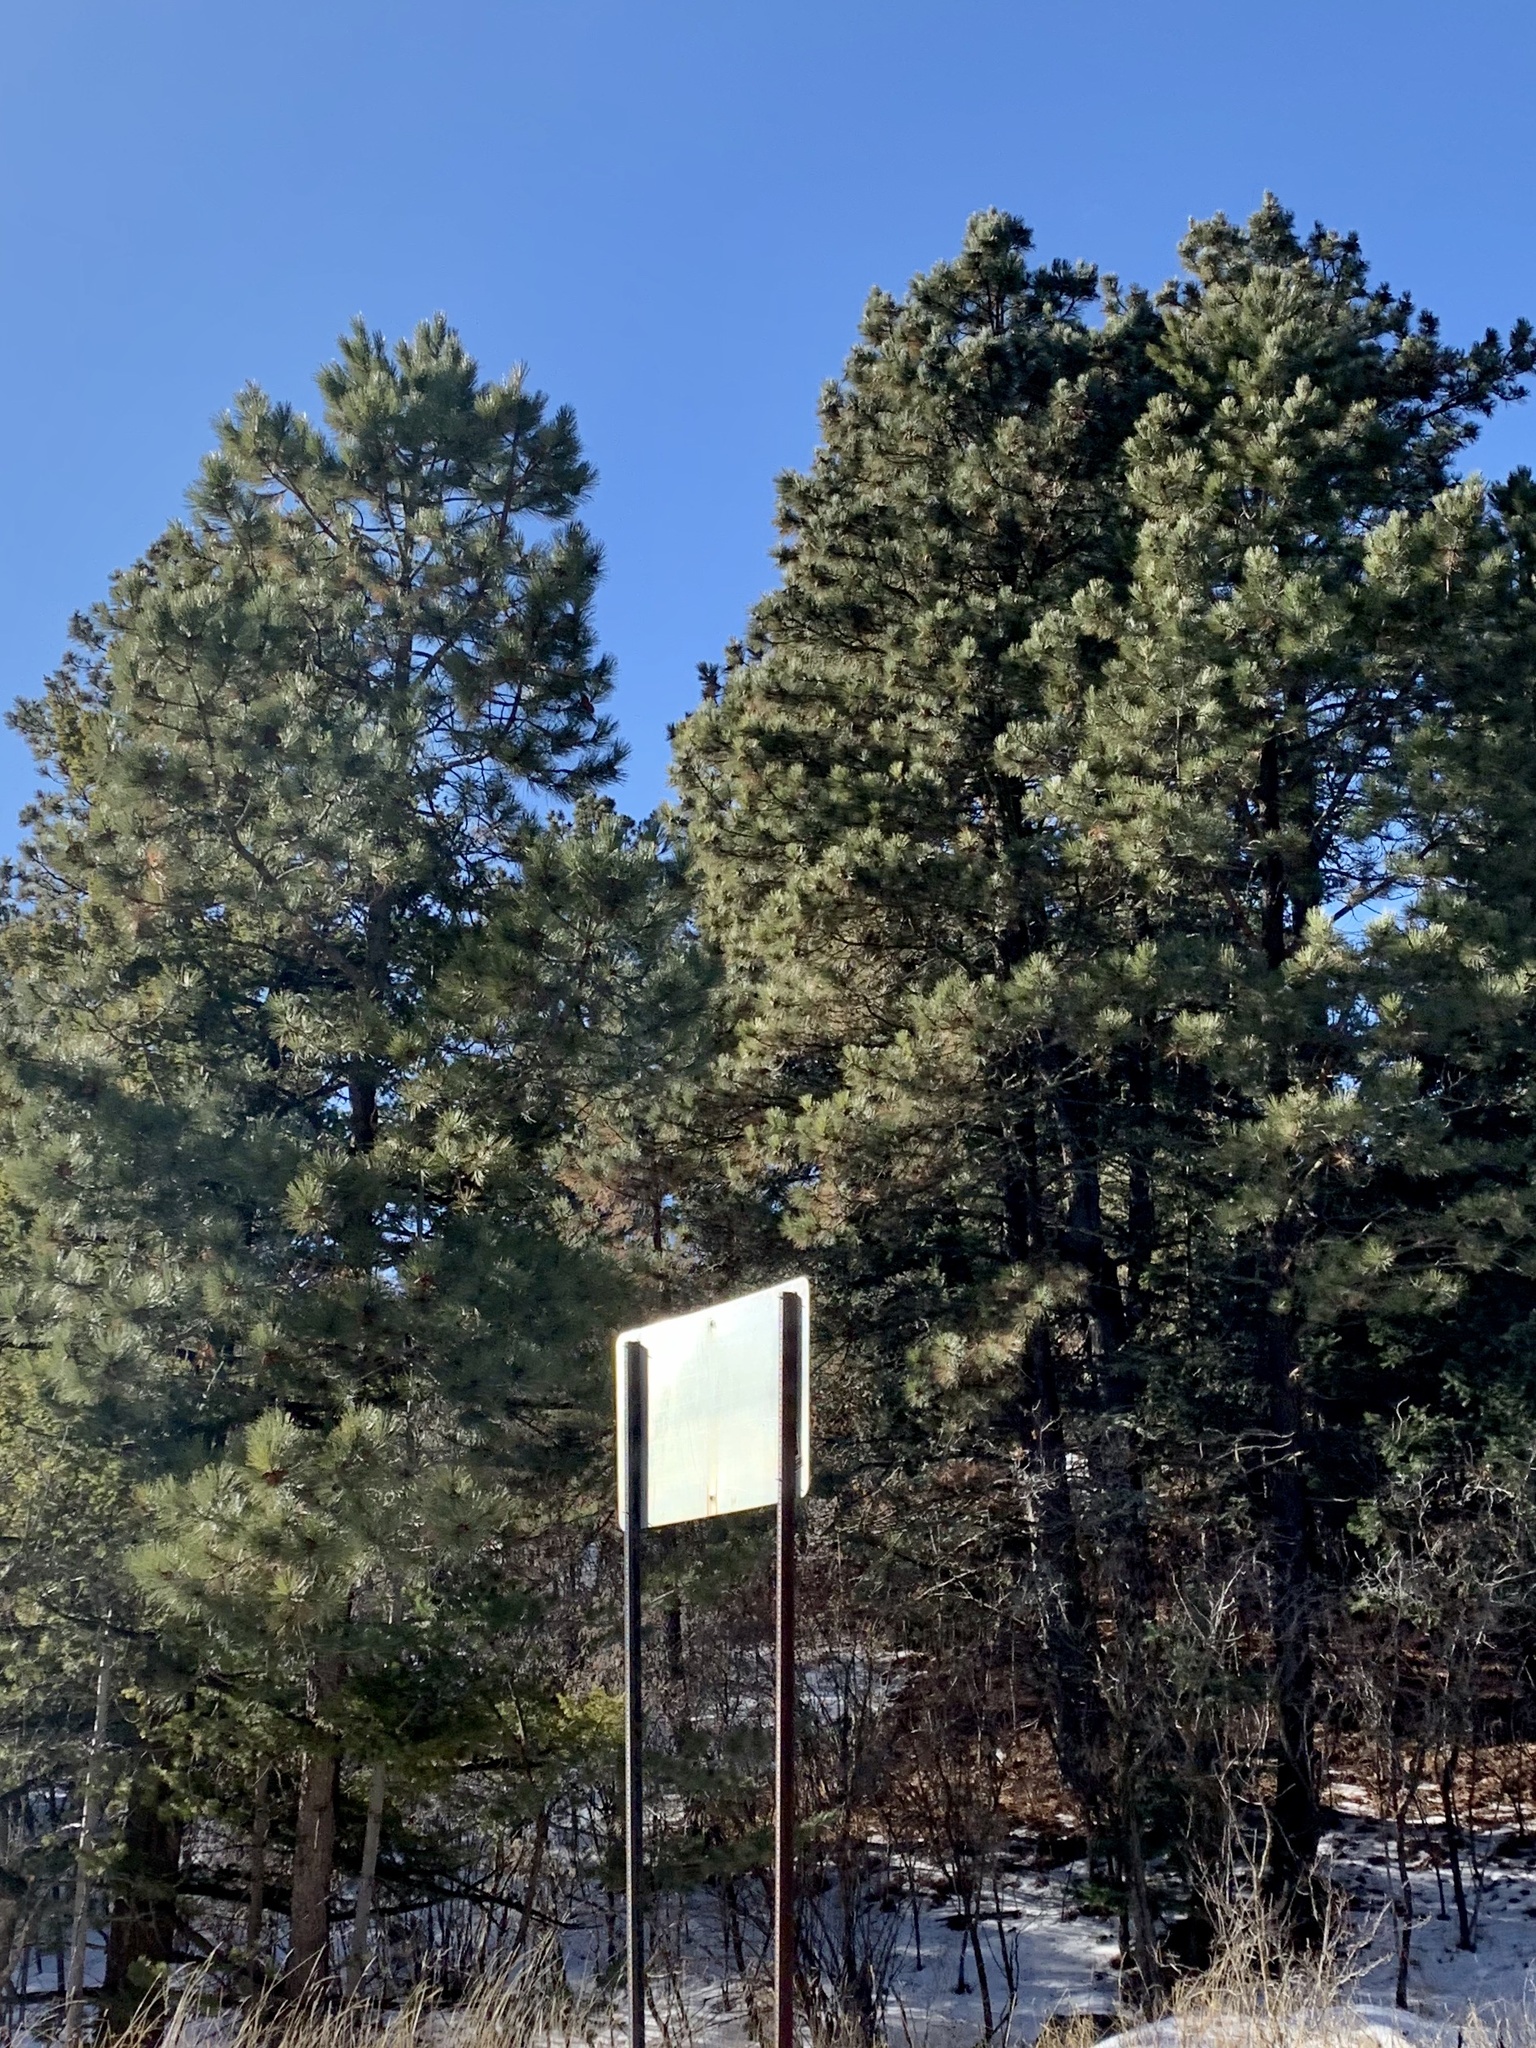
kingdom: Plantae
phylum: Tracheophyta
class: Pinopsida
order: Pinales
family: Pinaceae
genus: Pinus
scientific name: Pinus ponderosa
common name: Western yellow-pine
